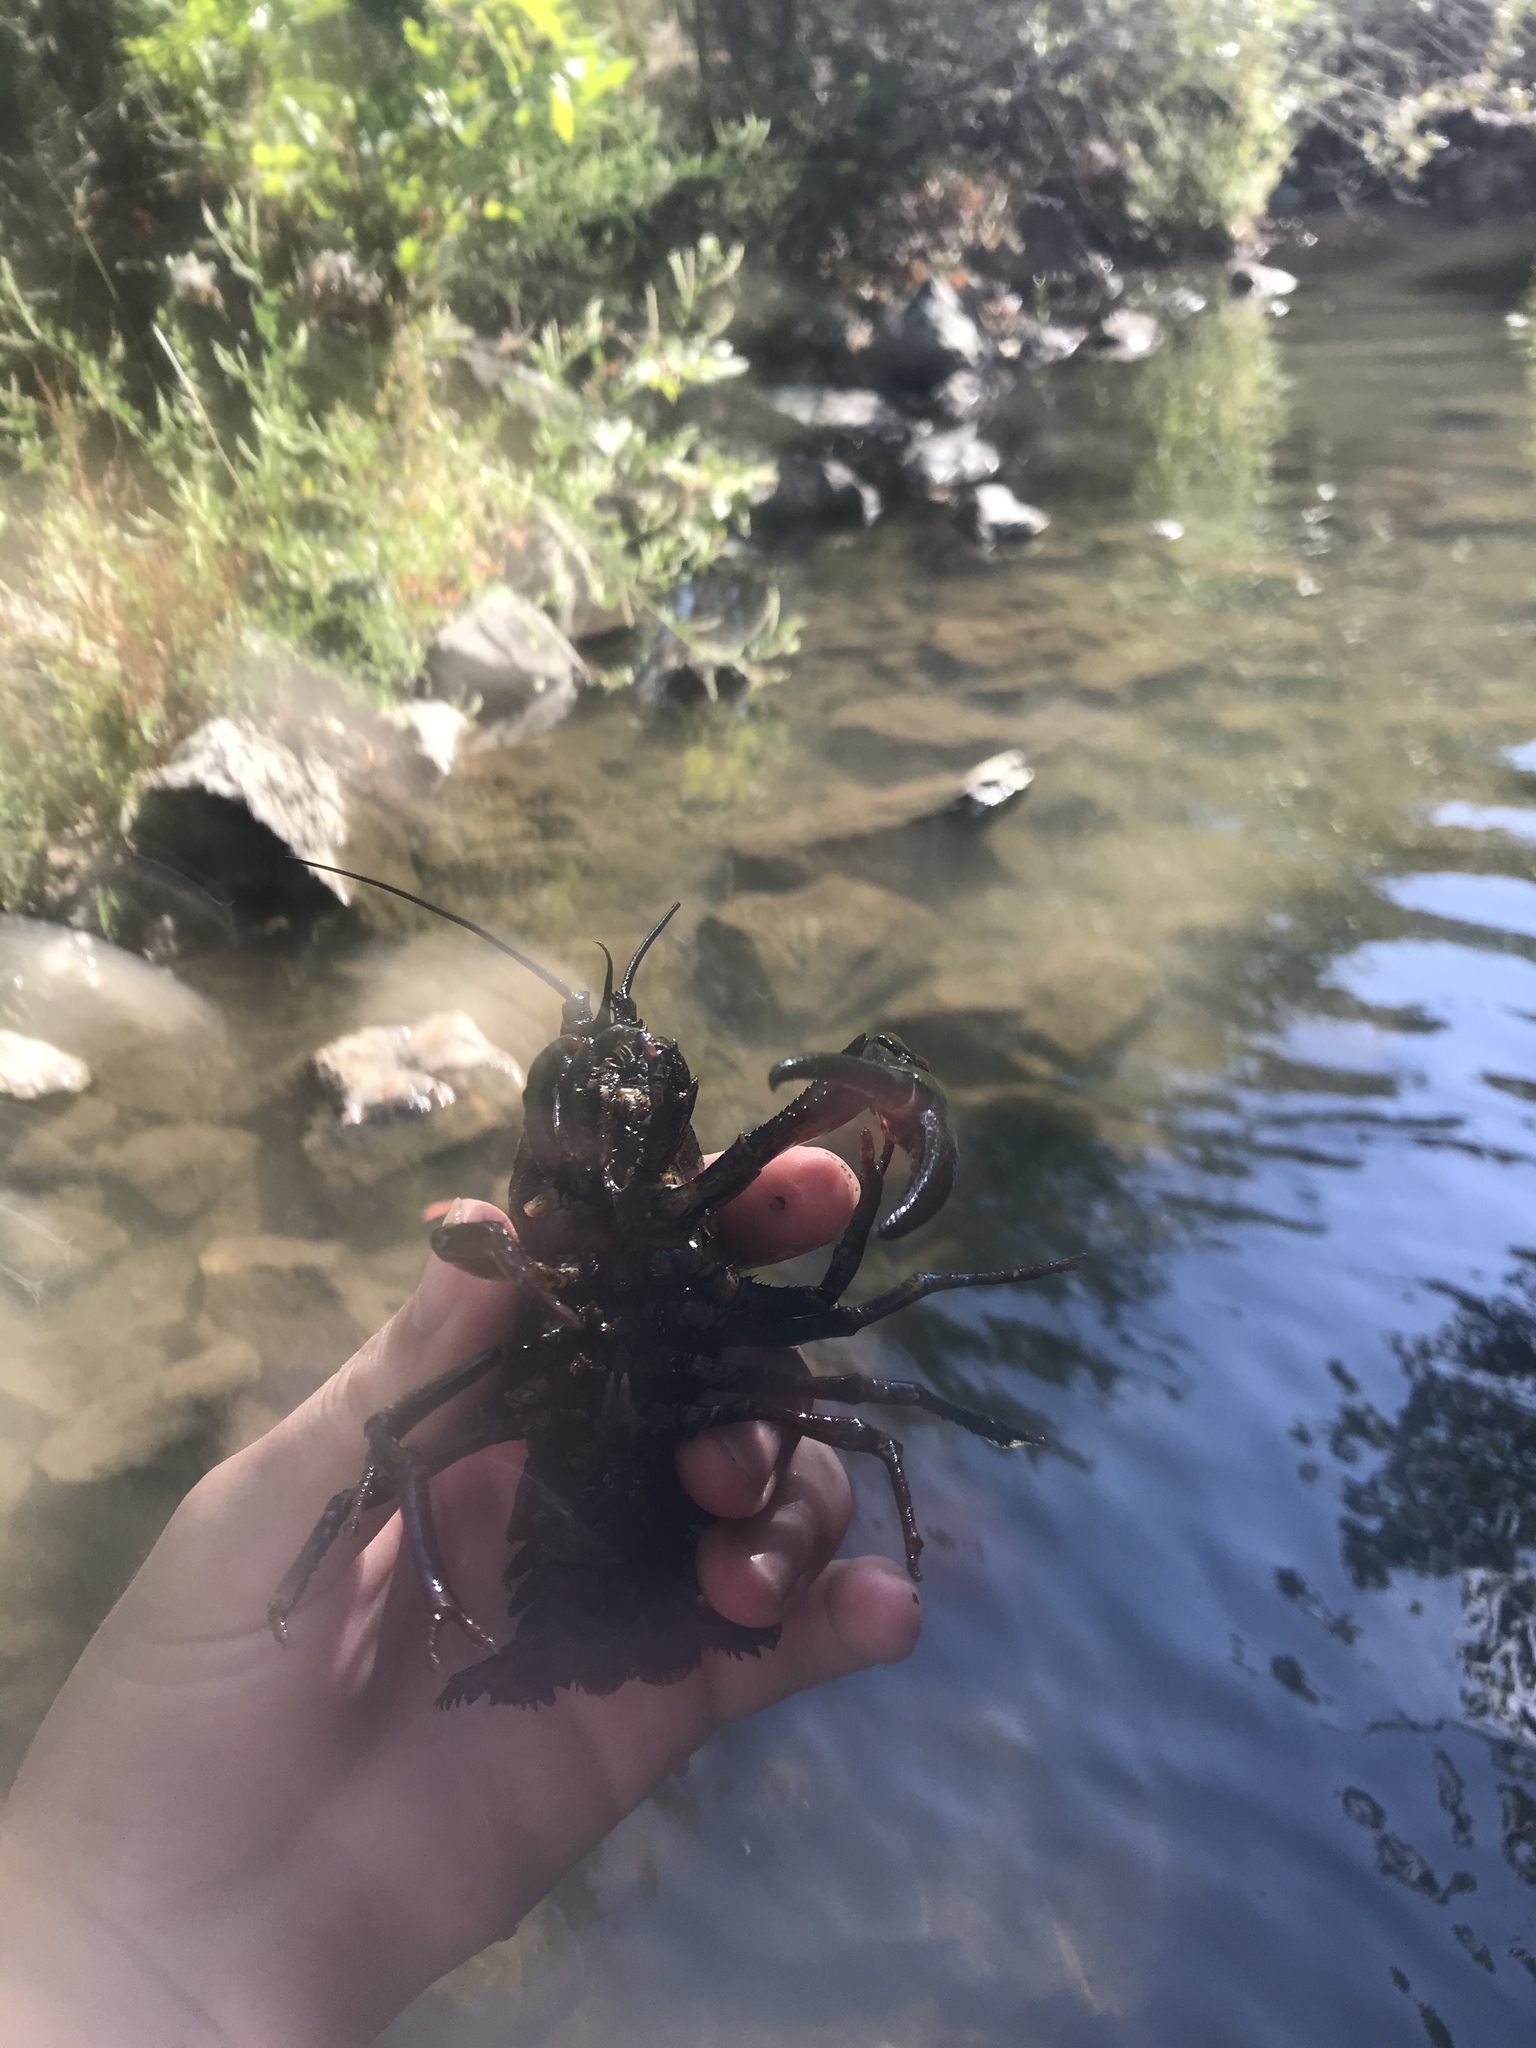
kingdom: Animalia
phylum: Arthropoda
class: Malacostraca
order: Decapoda
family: Astacidae
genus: Pacifastacus
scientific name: Pacifastacus leniusculus
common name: Signal crayfish
